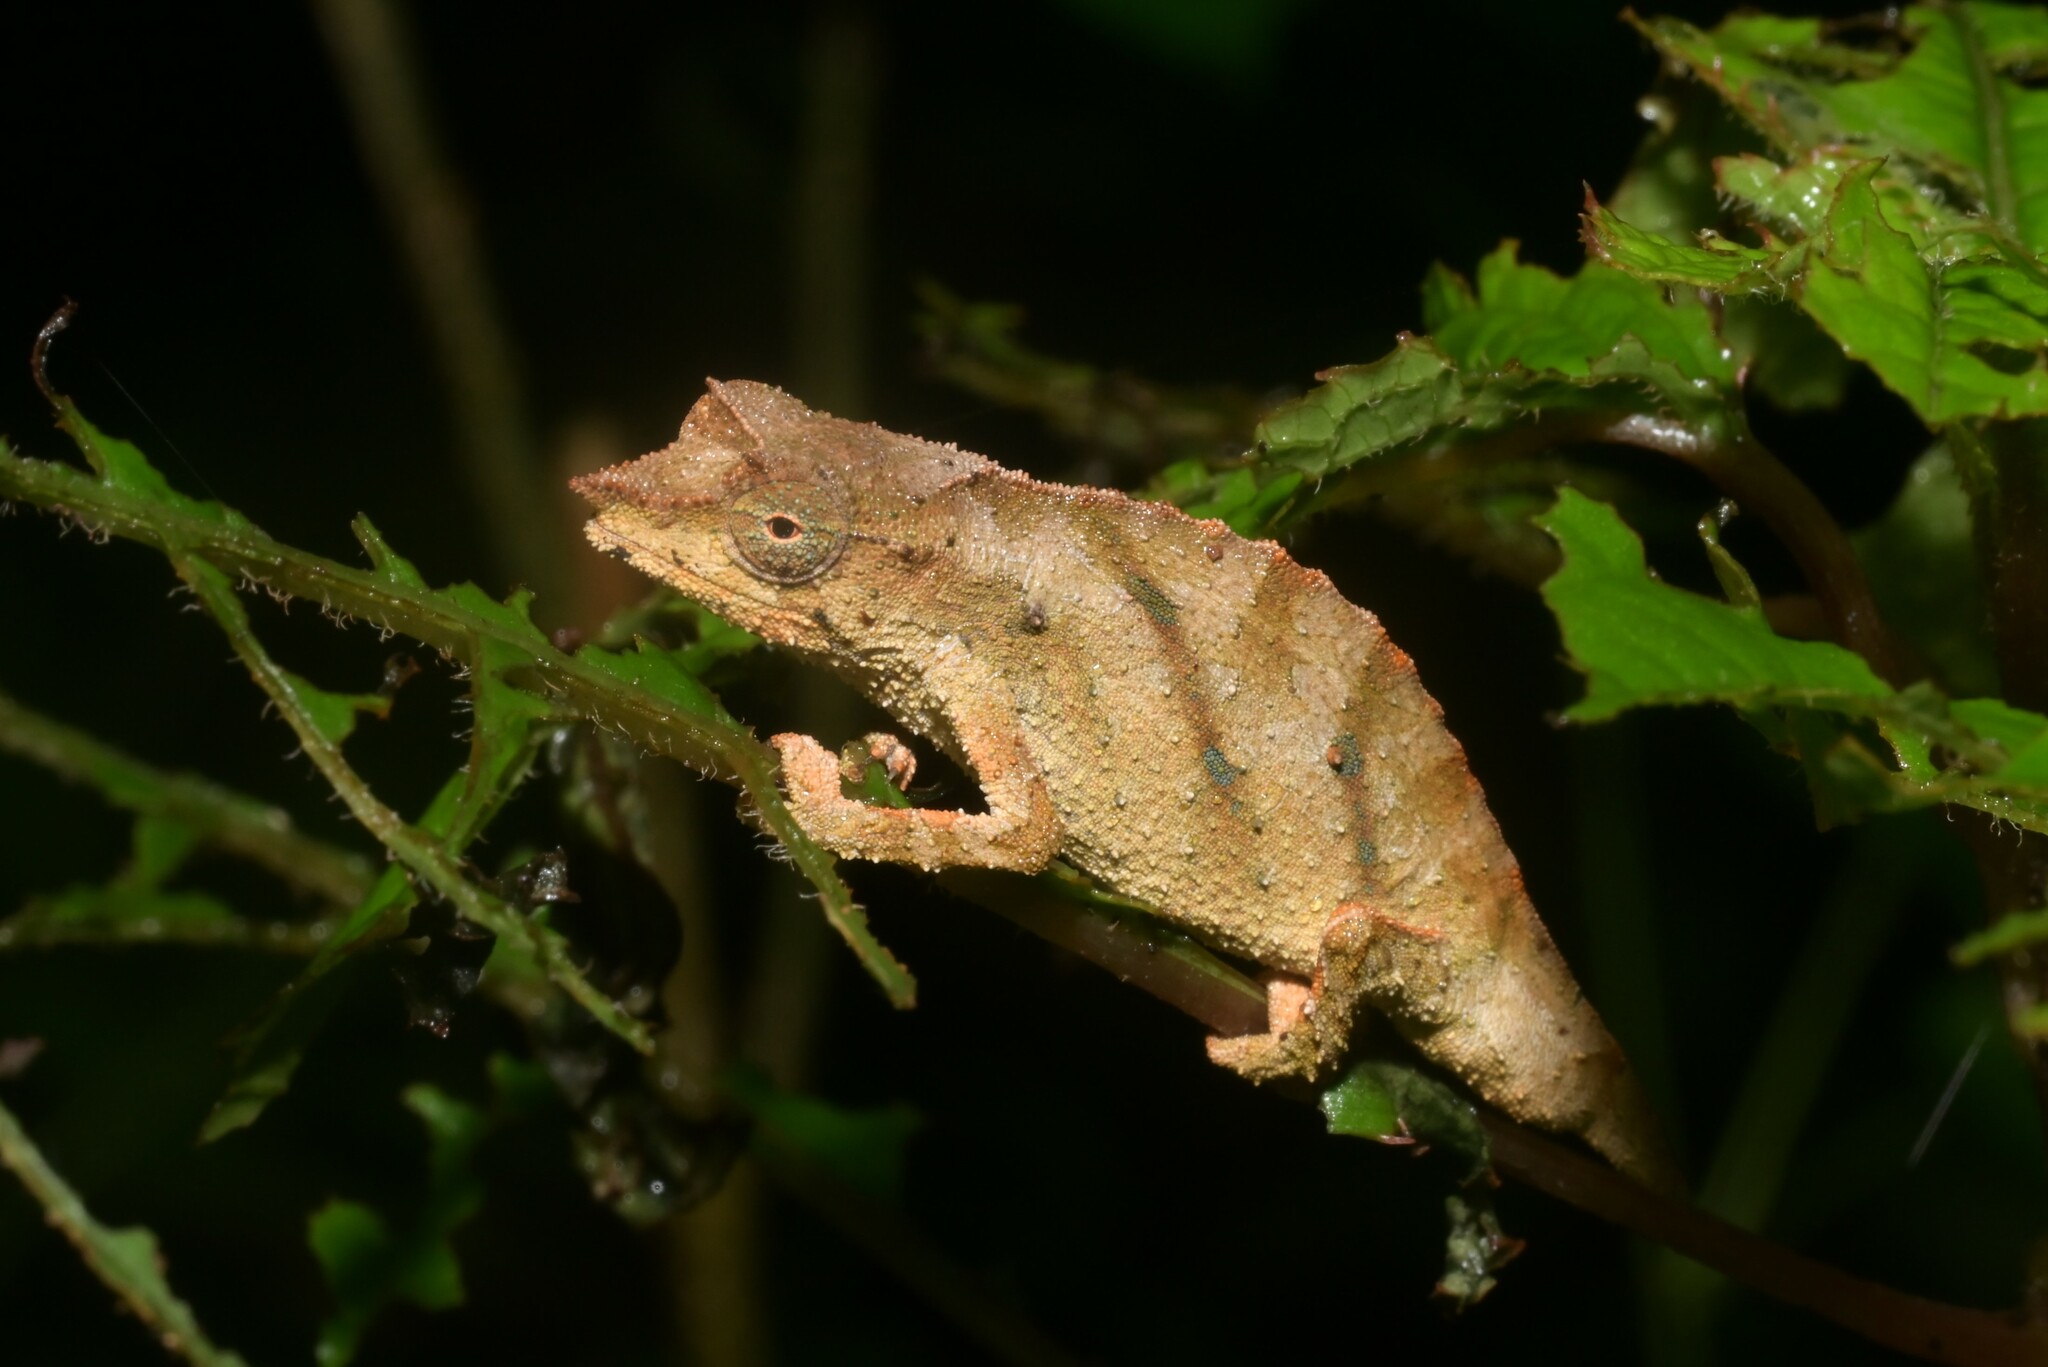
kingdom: Animalia
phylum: Chordata
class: Squamata
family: Chamaeleonidae
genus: Rhampholeon
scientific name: Rhampholeon nchisiensis
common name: South african stumptail chameleon
